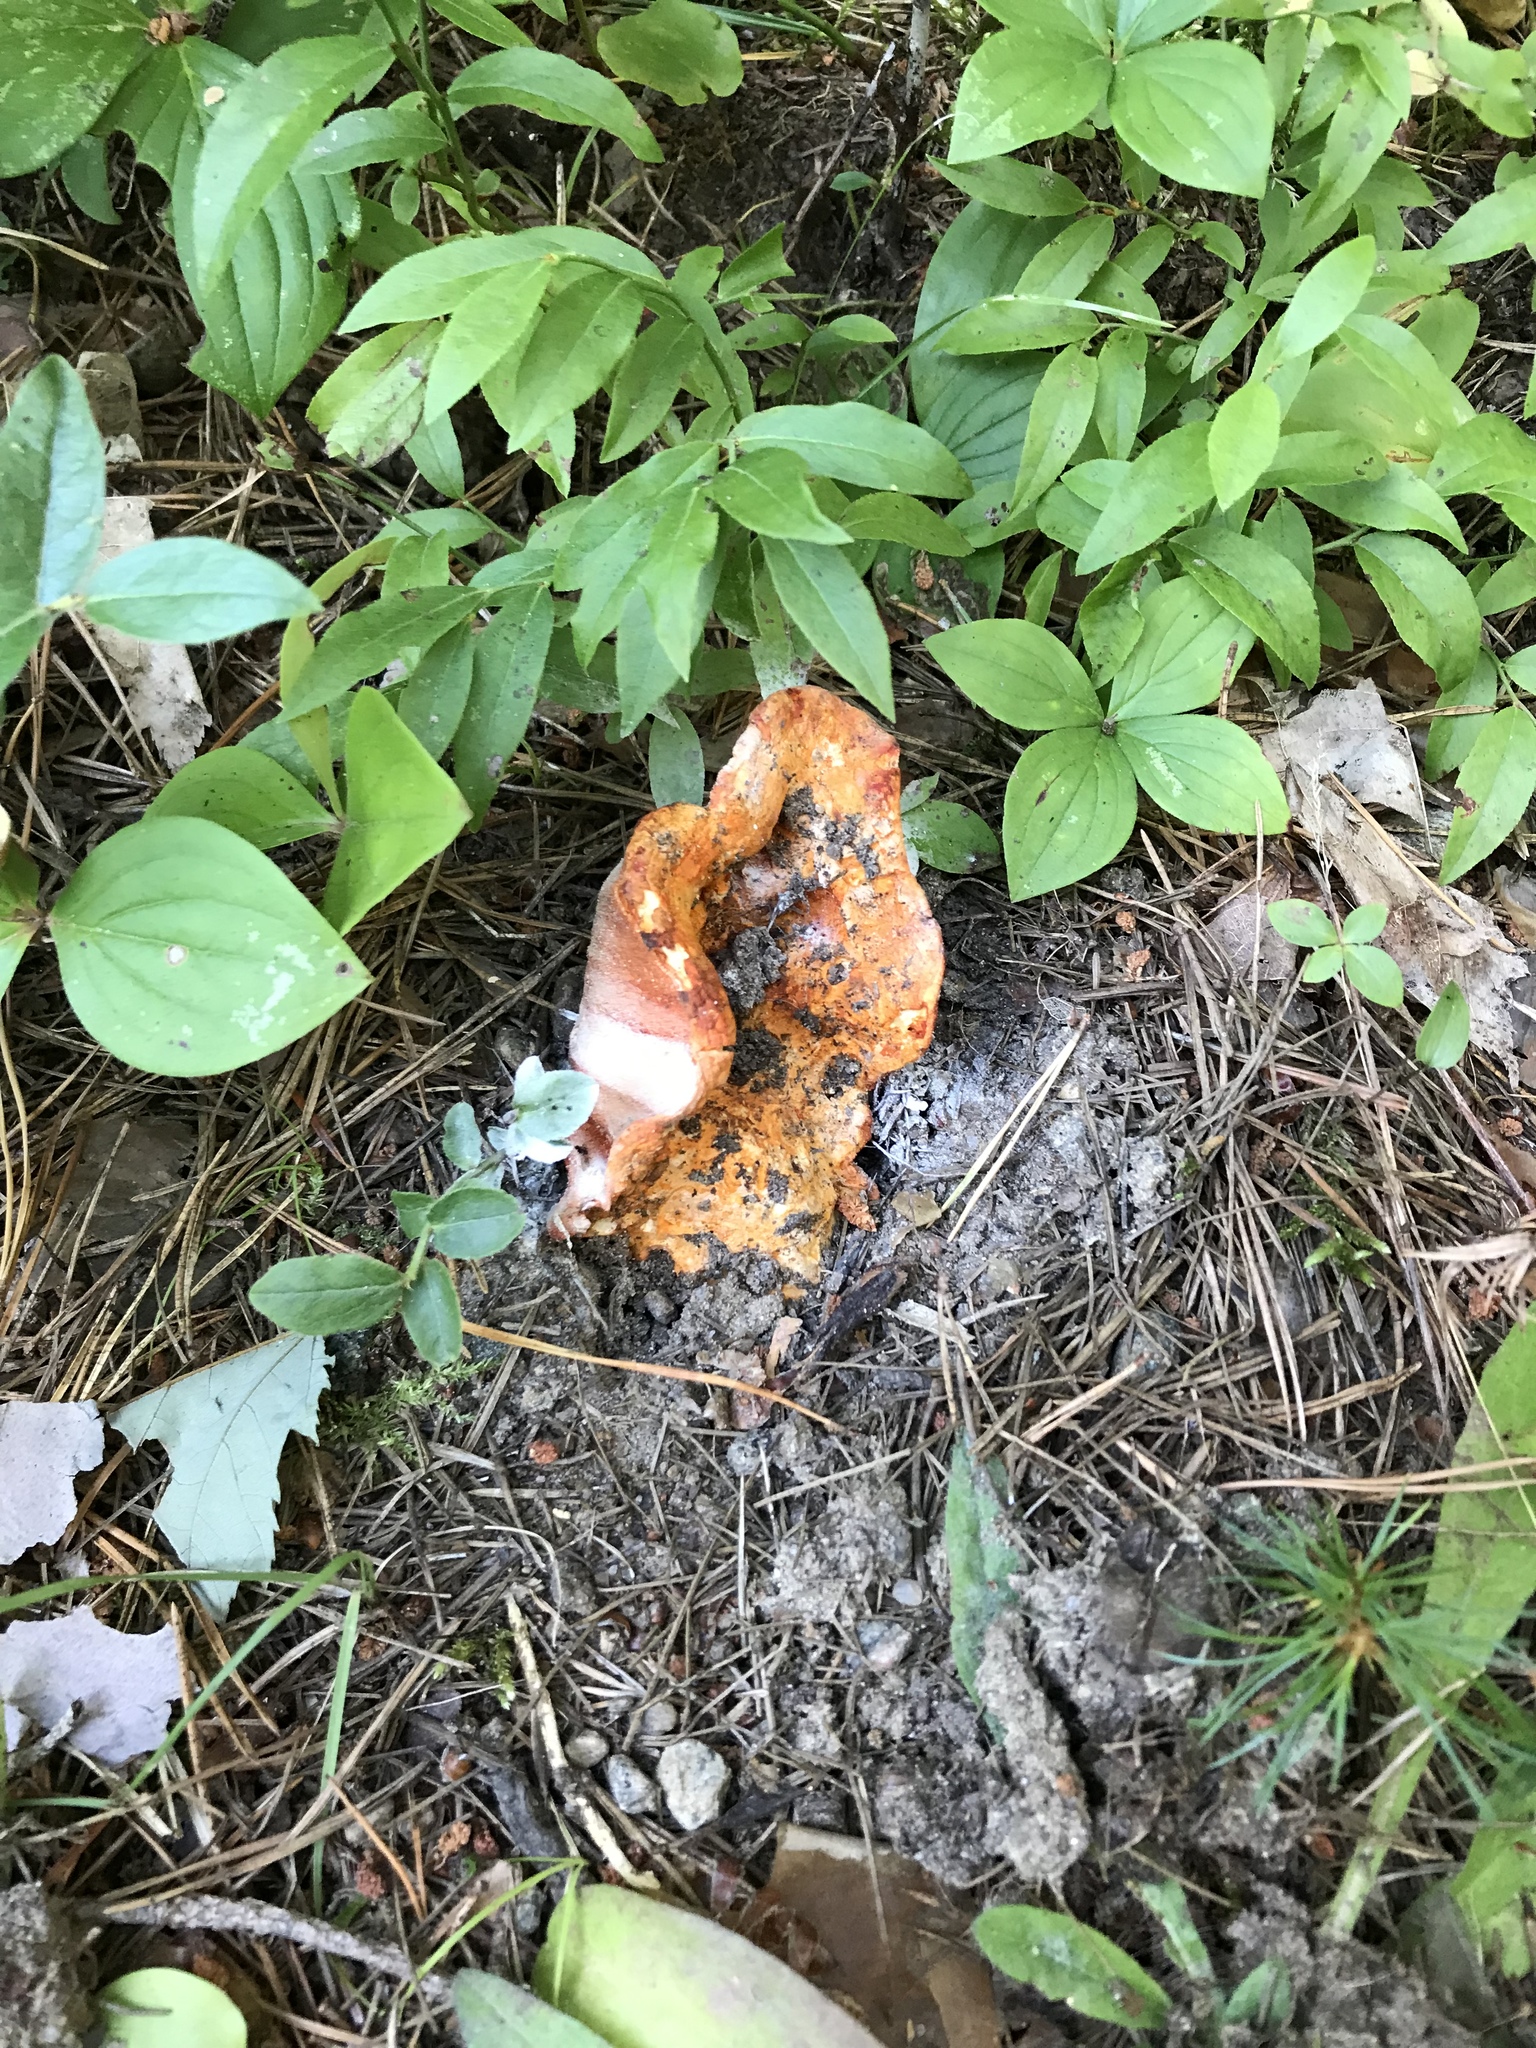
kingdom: Fungi
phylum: Ascomycota
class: Sordariomycetes
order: Hypocreales
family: Hypocreaceae
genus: Hypomyces
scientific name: Hypomyces lactifluorum
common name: Lobster mushroom
